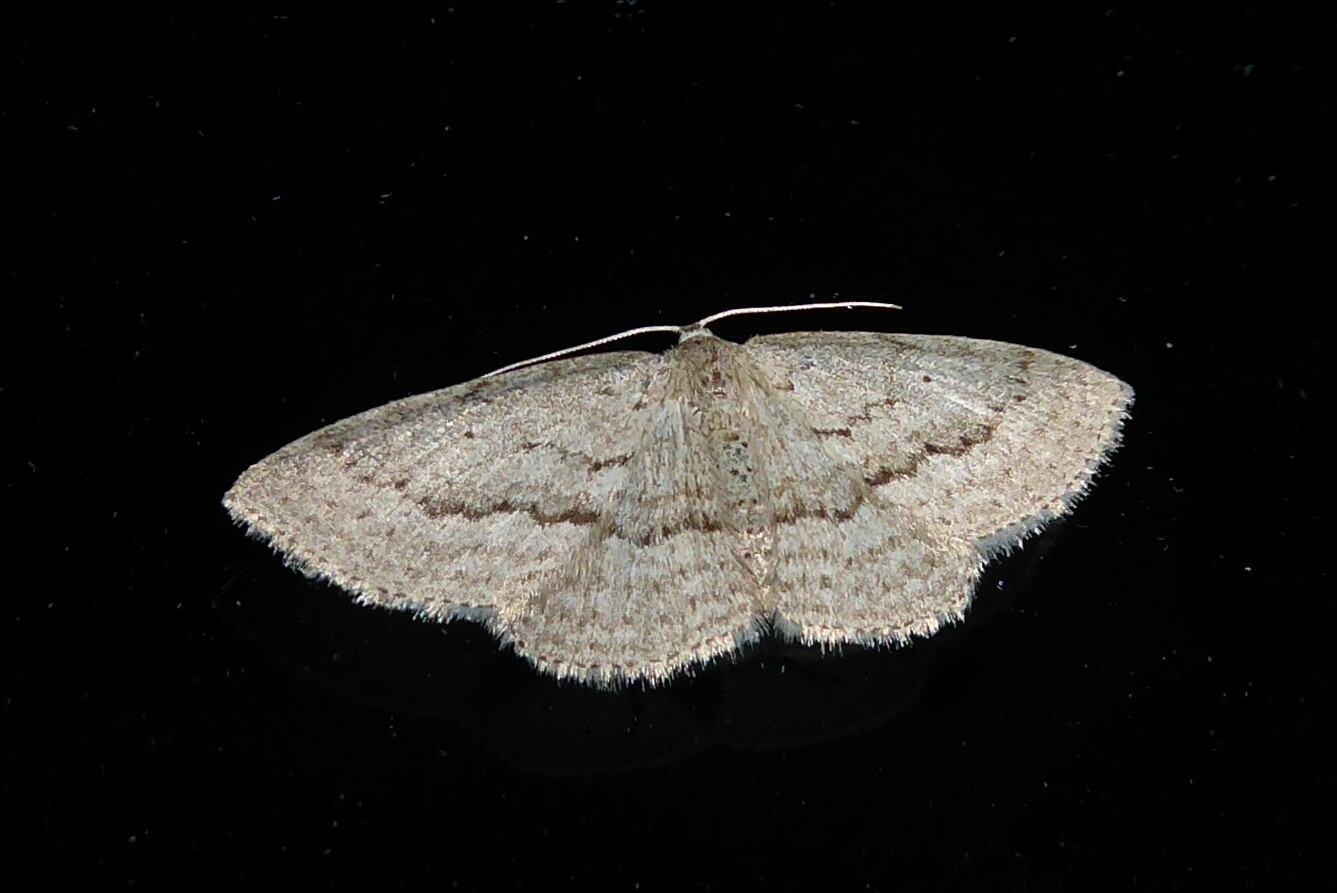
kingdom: Animalia
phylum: Arthropoda
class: Insecta
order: Lepidoptera
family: Geometridae
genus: Poecilasthena
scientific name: Poecilasthena schistaria
